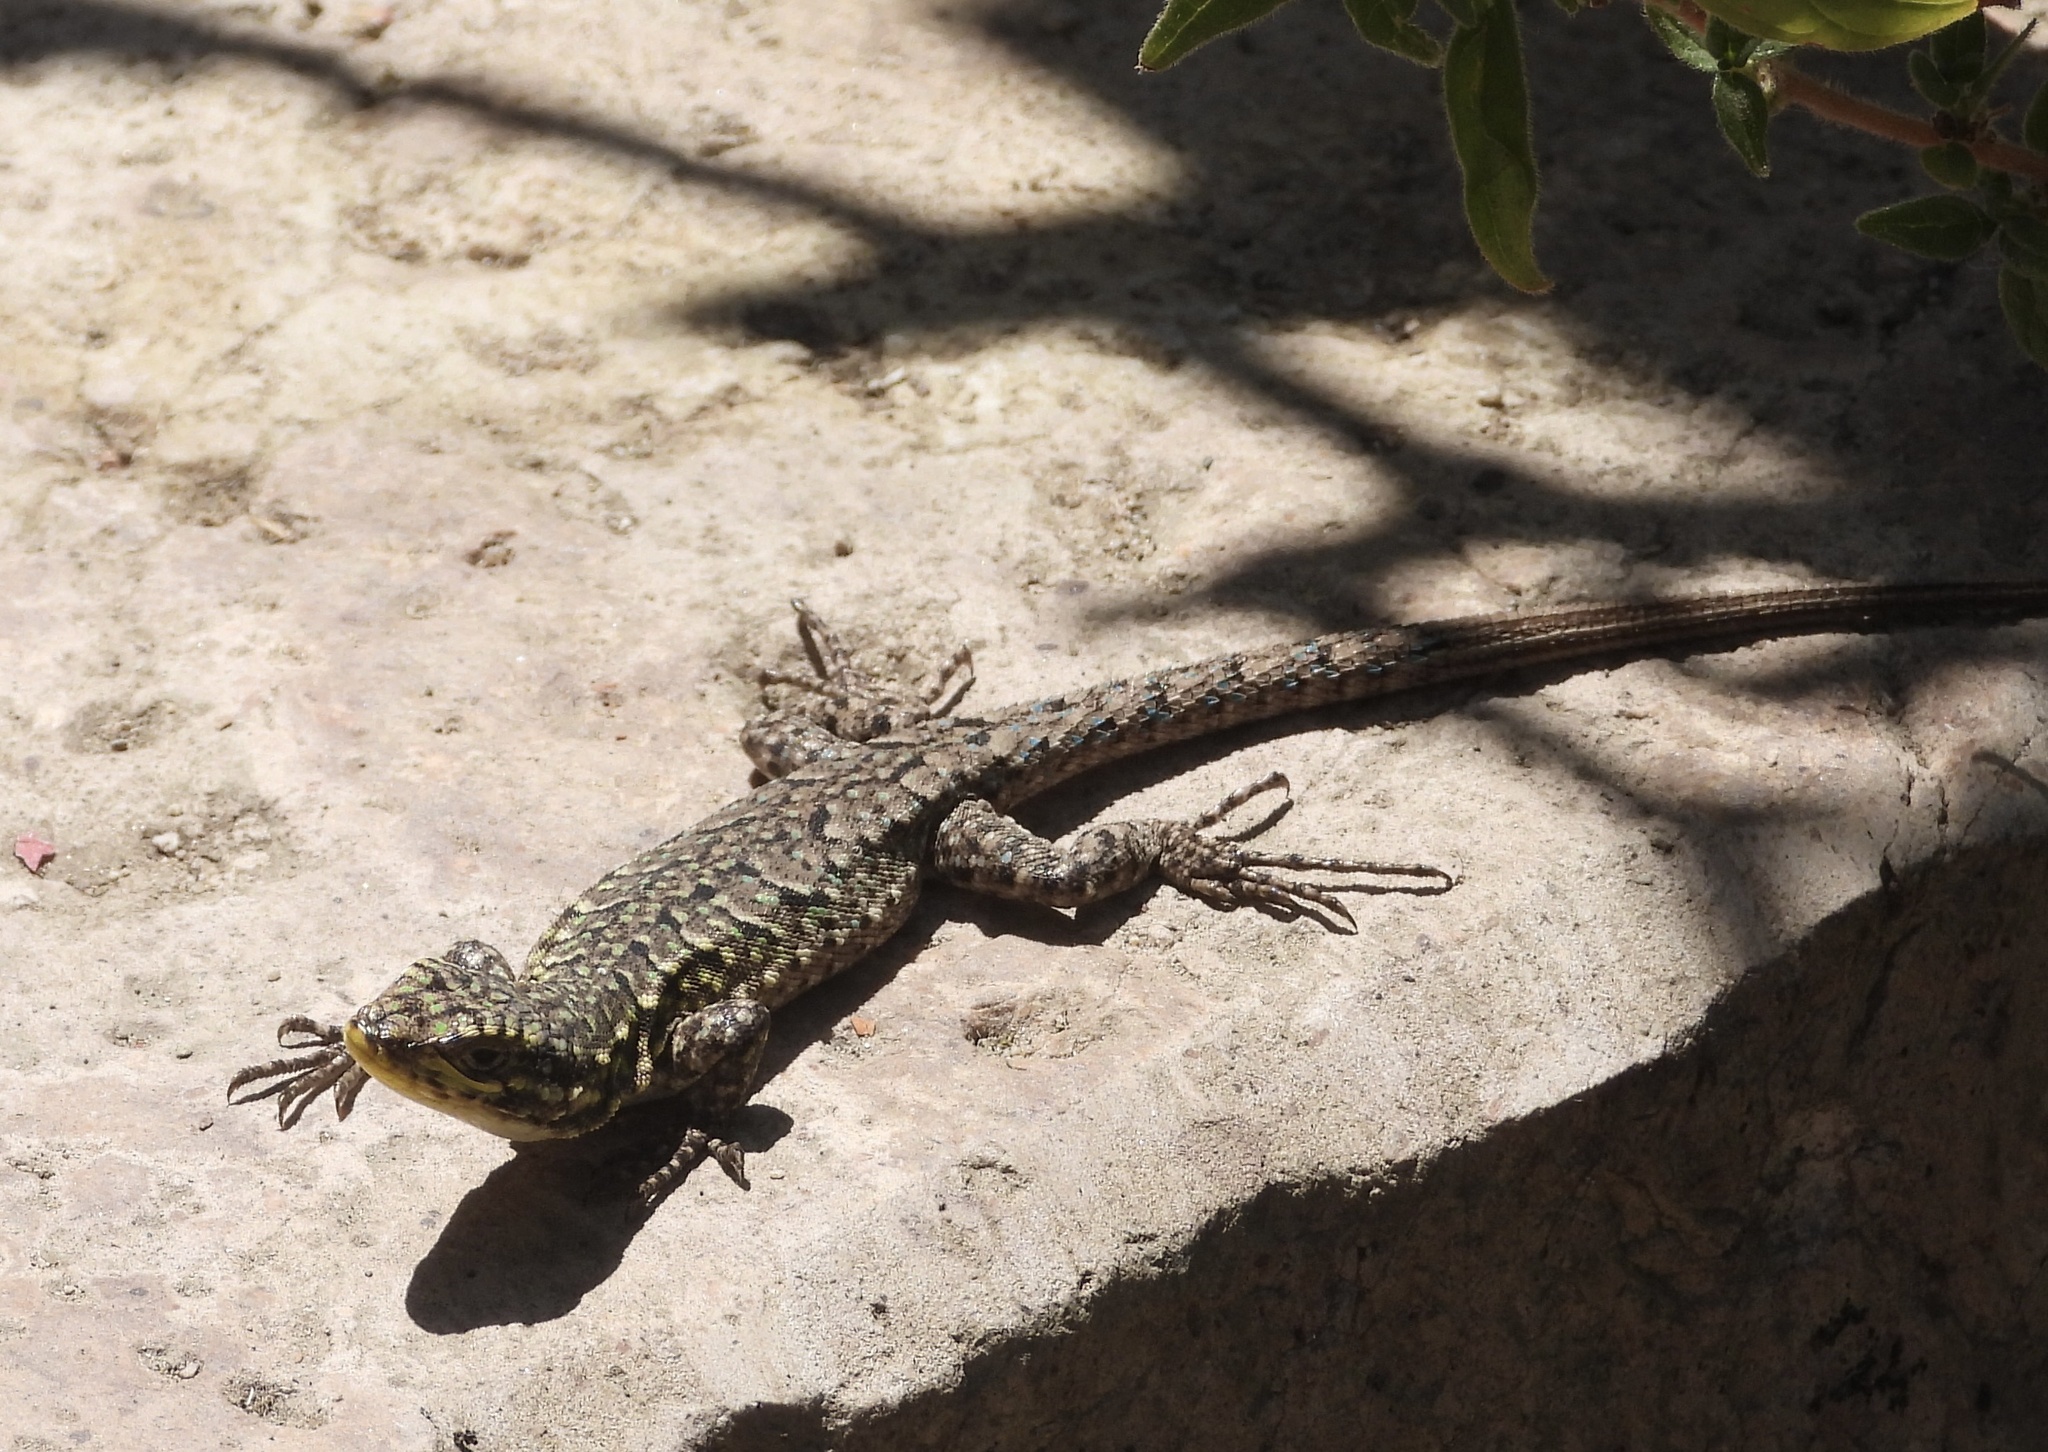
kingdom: Animalia
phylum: Chordata
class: Squamata
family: Liolaemidae
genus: Liolaemus
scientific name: Liolaemus tenuis
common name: Thin tree iguana
